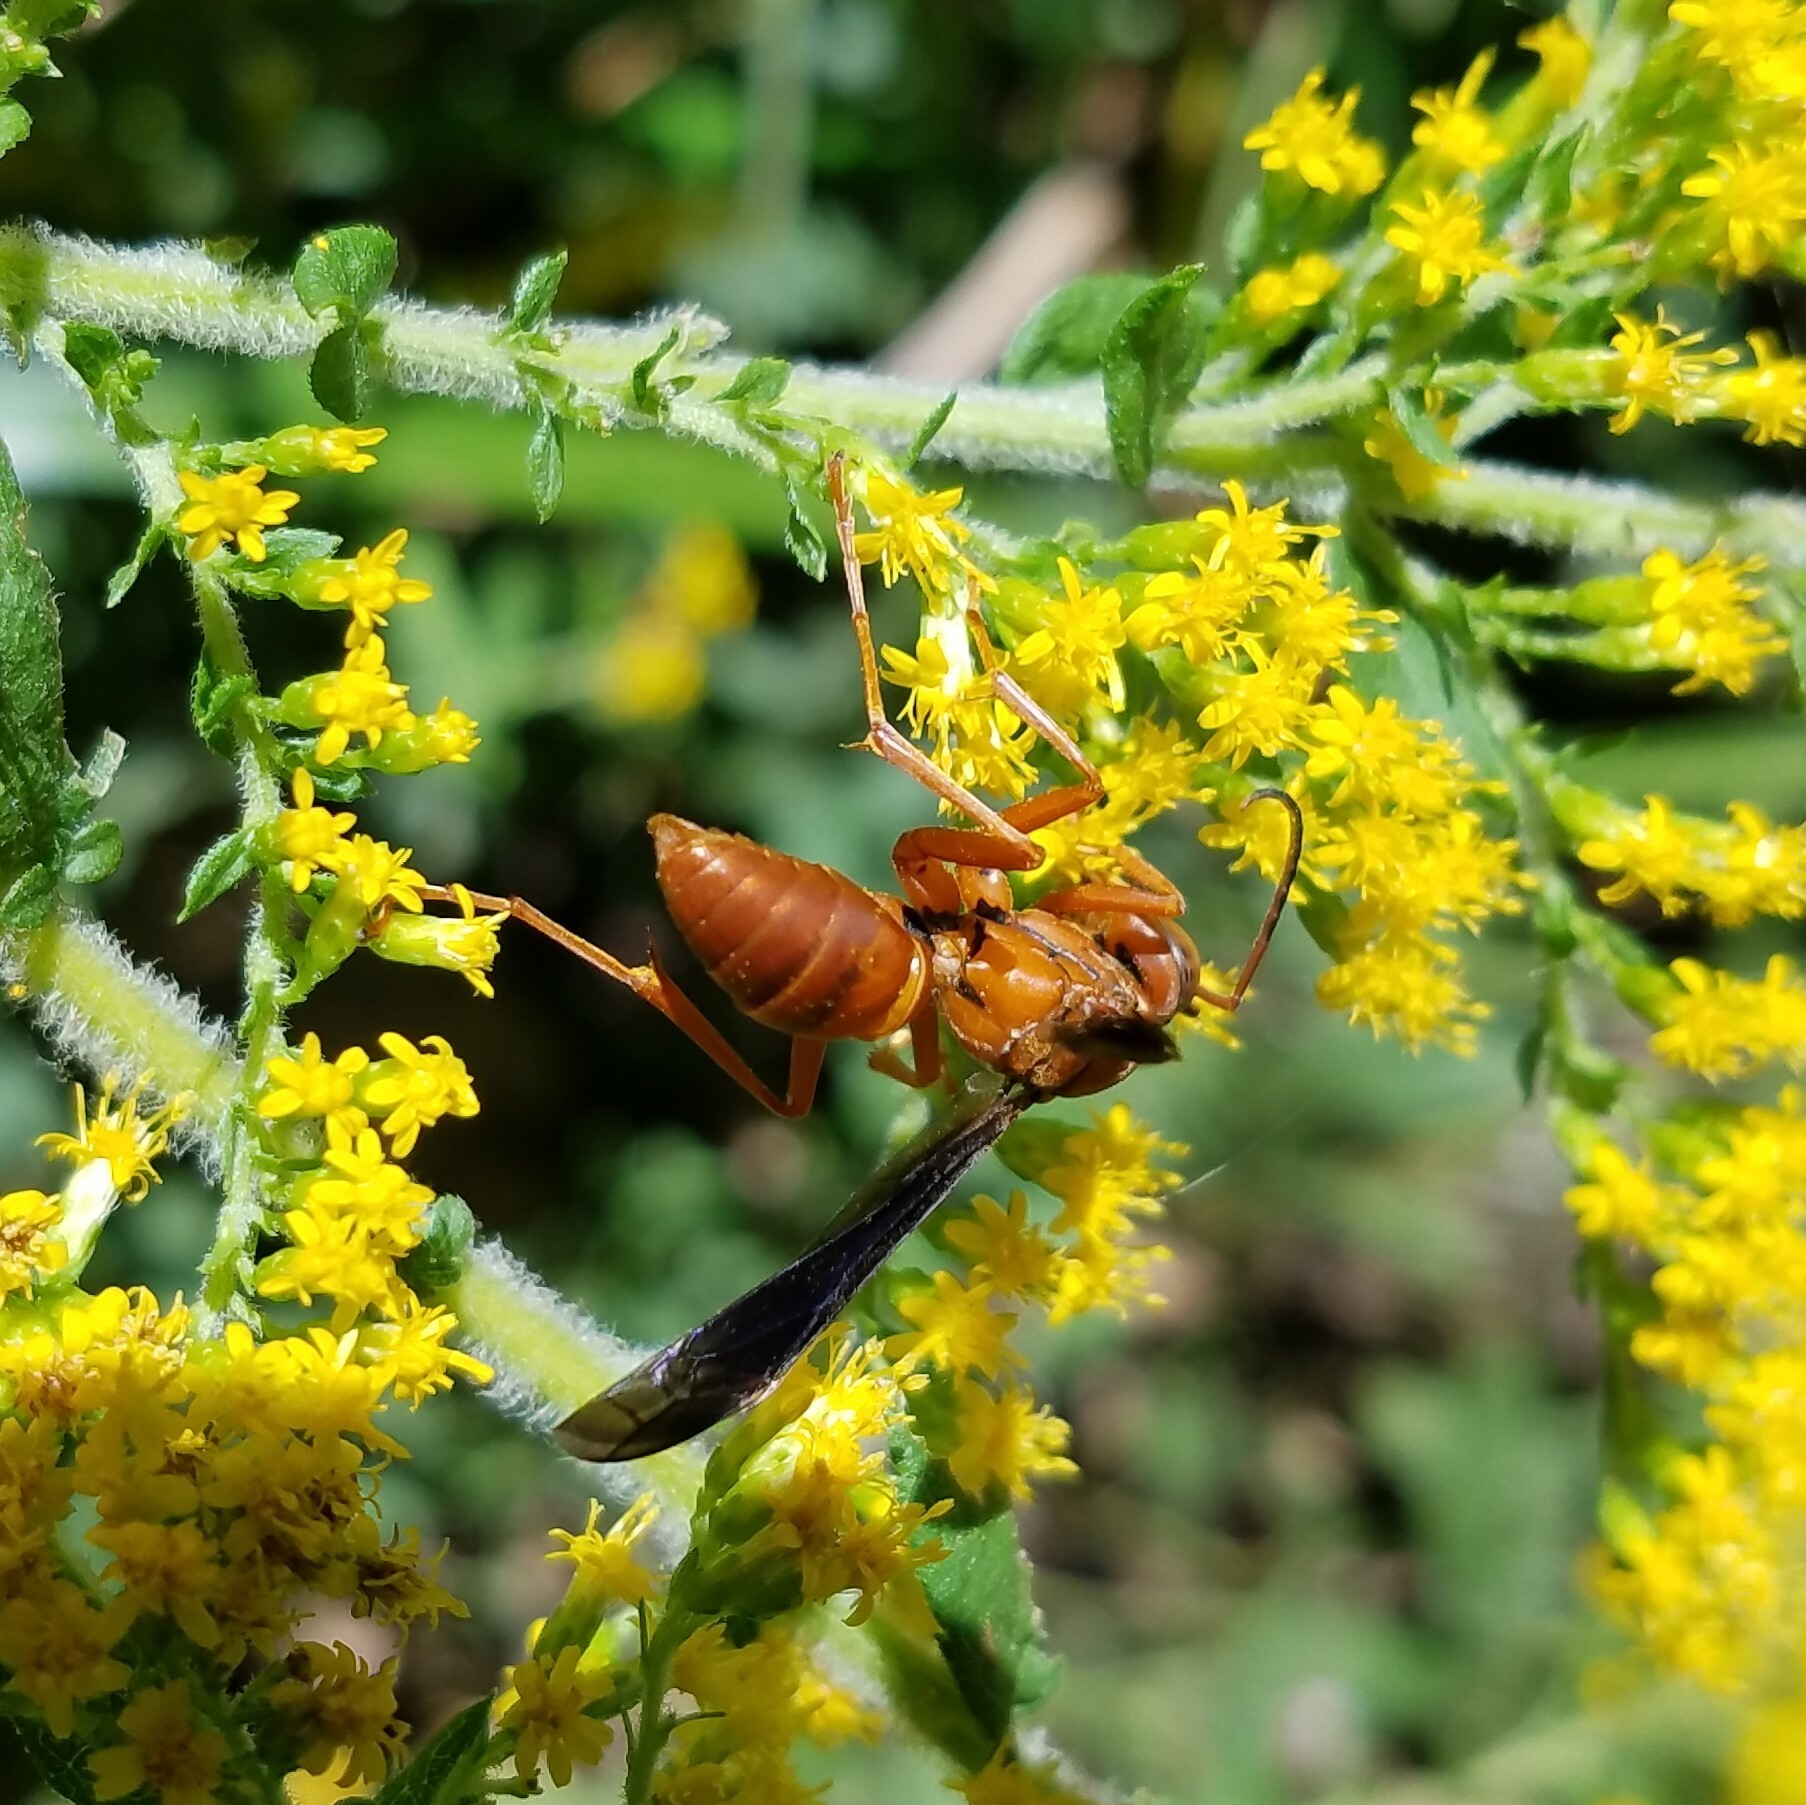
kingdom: Animalia
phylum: Arthropoda
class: Insecta
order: Hymenoptera
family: Vespidae
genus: Fuscopolistes
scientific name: Fuscopolistes
